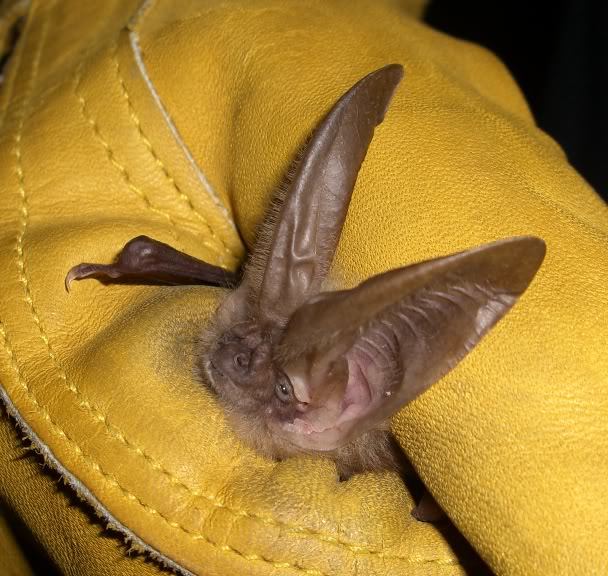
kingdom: Animalia
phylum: Chordata
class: Mammalia
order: Chiroptera
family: Vespertilionidae
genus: Corynorhinus
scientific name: Corynorhinus townsendii
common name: Townsend's big-eared bat
